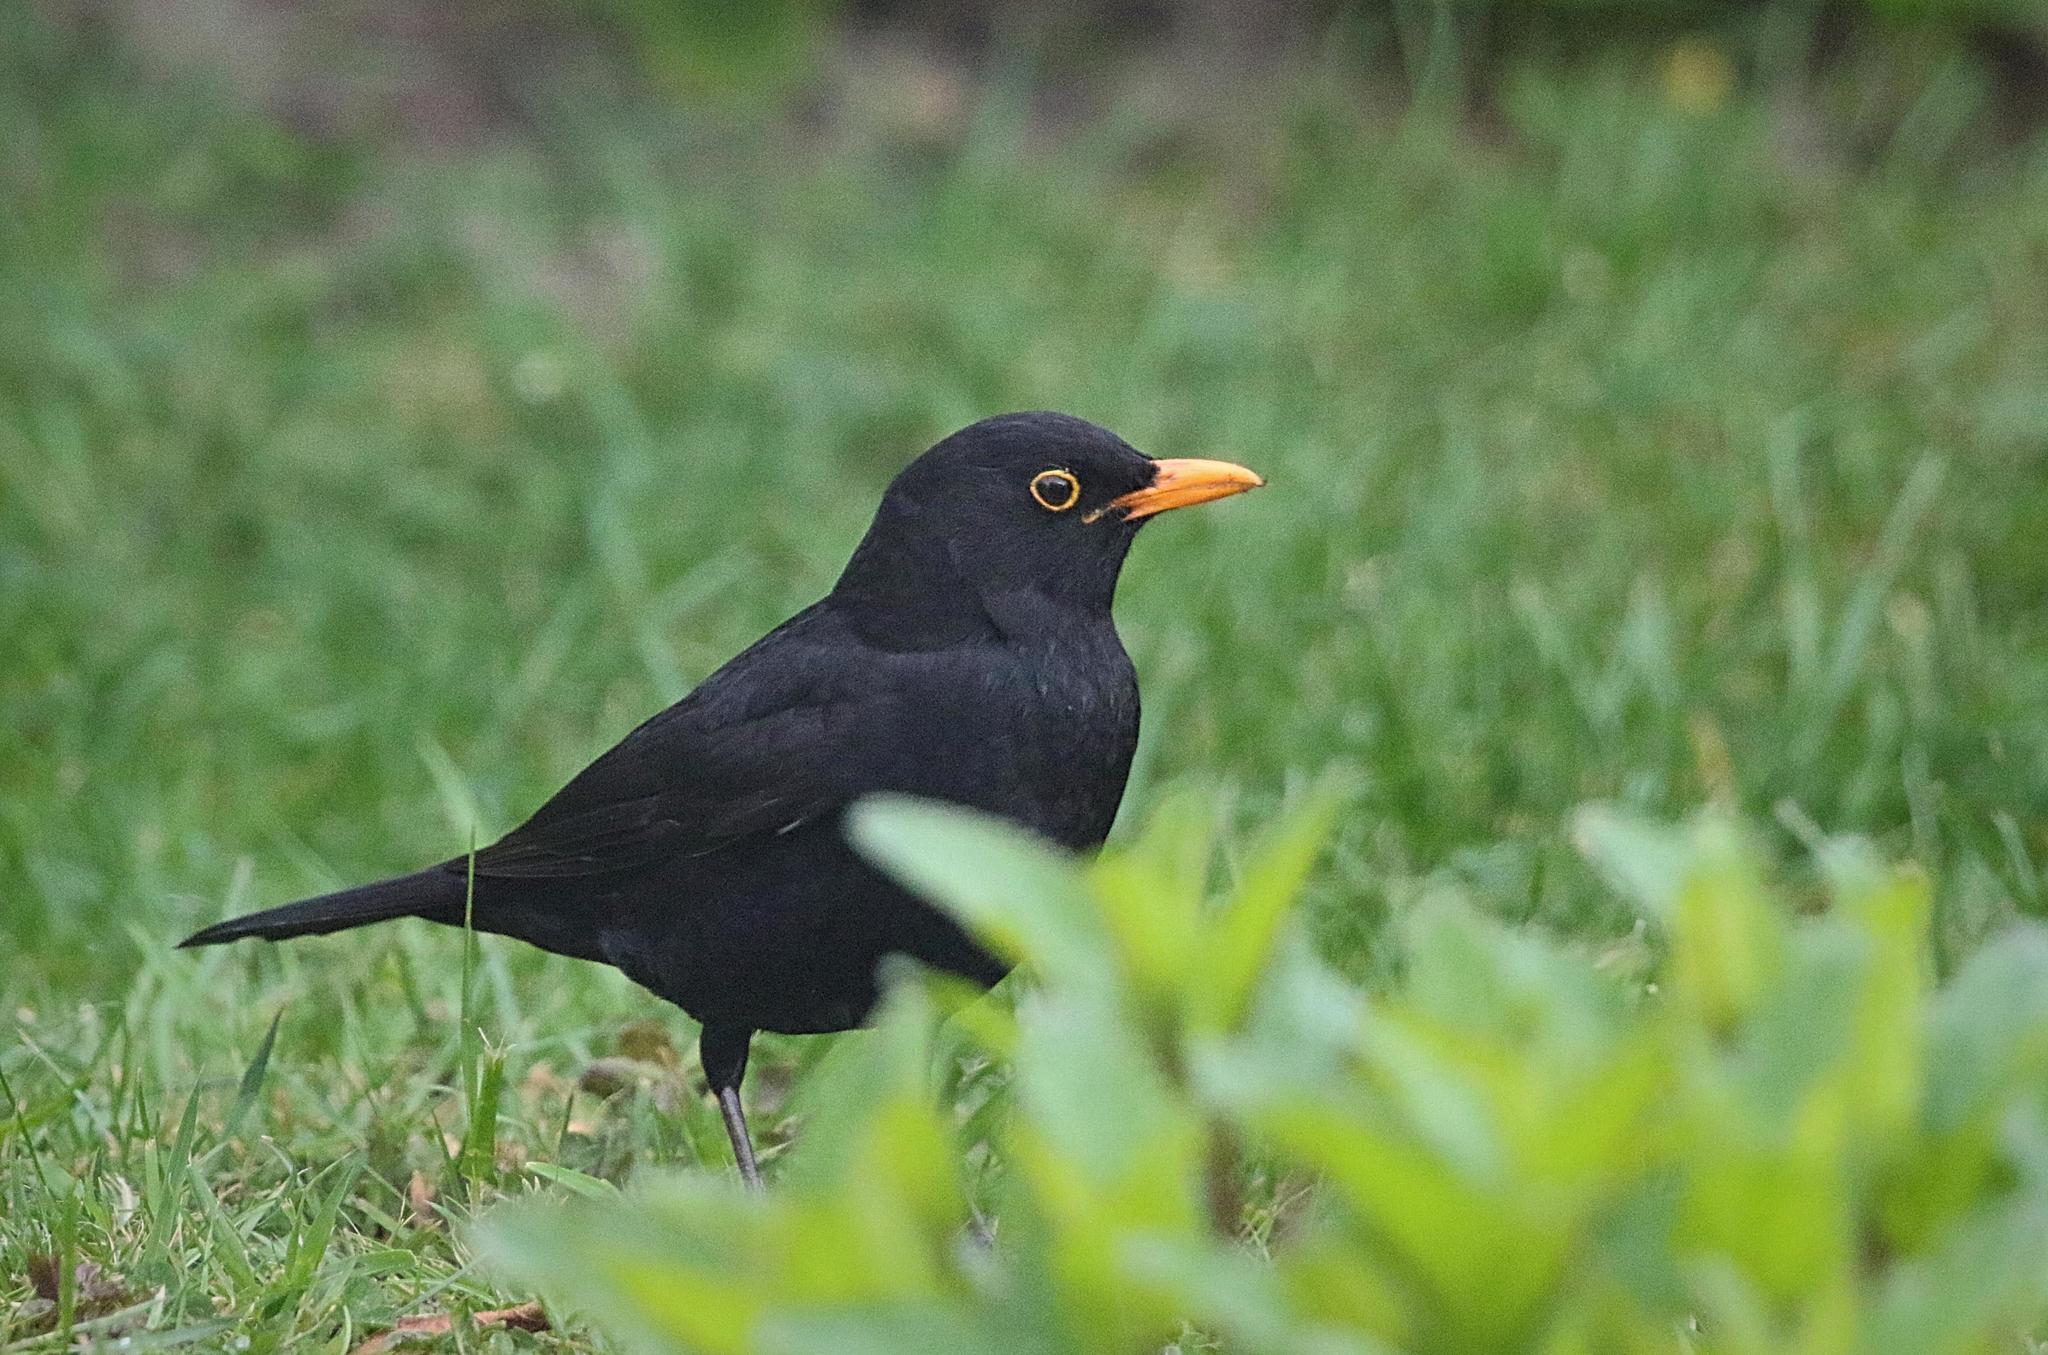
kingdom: Animalia
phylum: Chordata
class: Aves
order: Passeriformes
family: Turdidae
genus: Turdus
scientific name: Turdus merula
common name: Common blackbird
